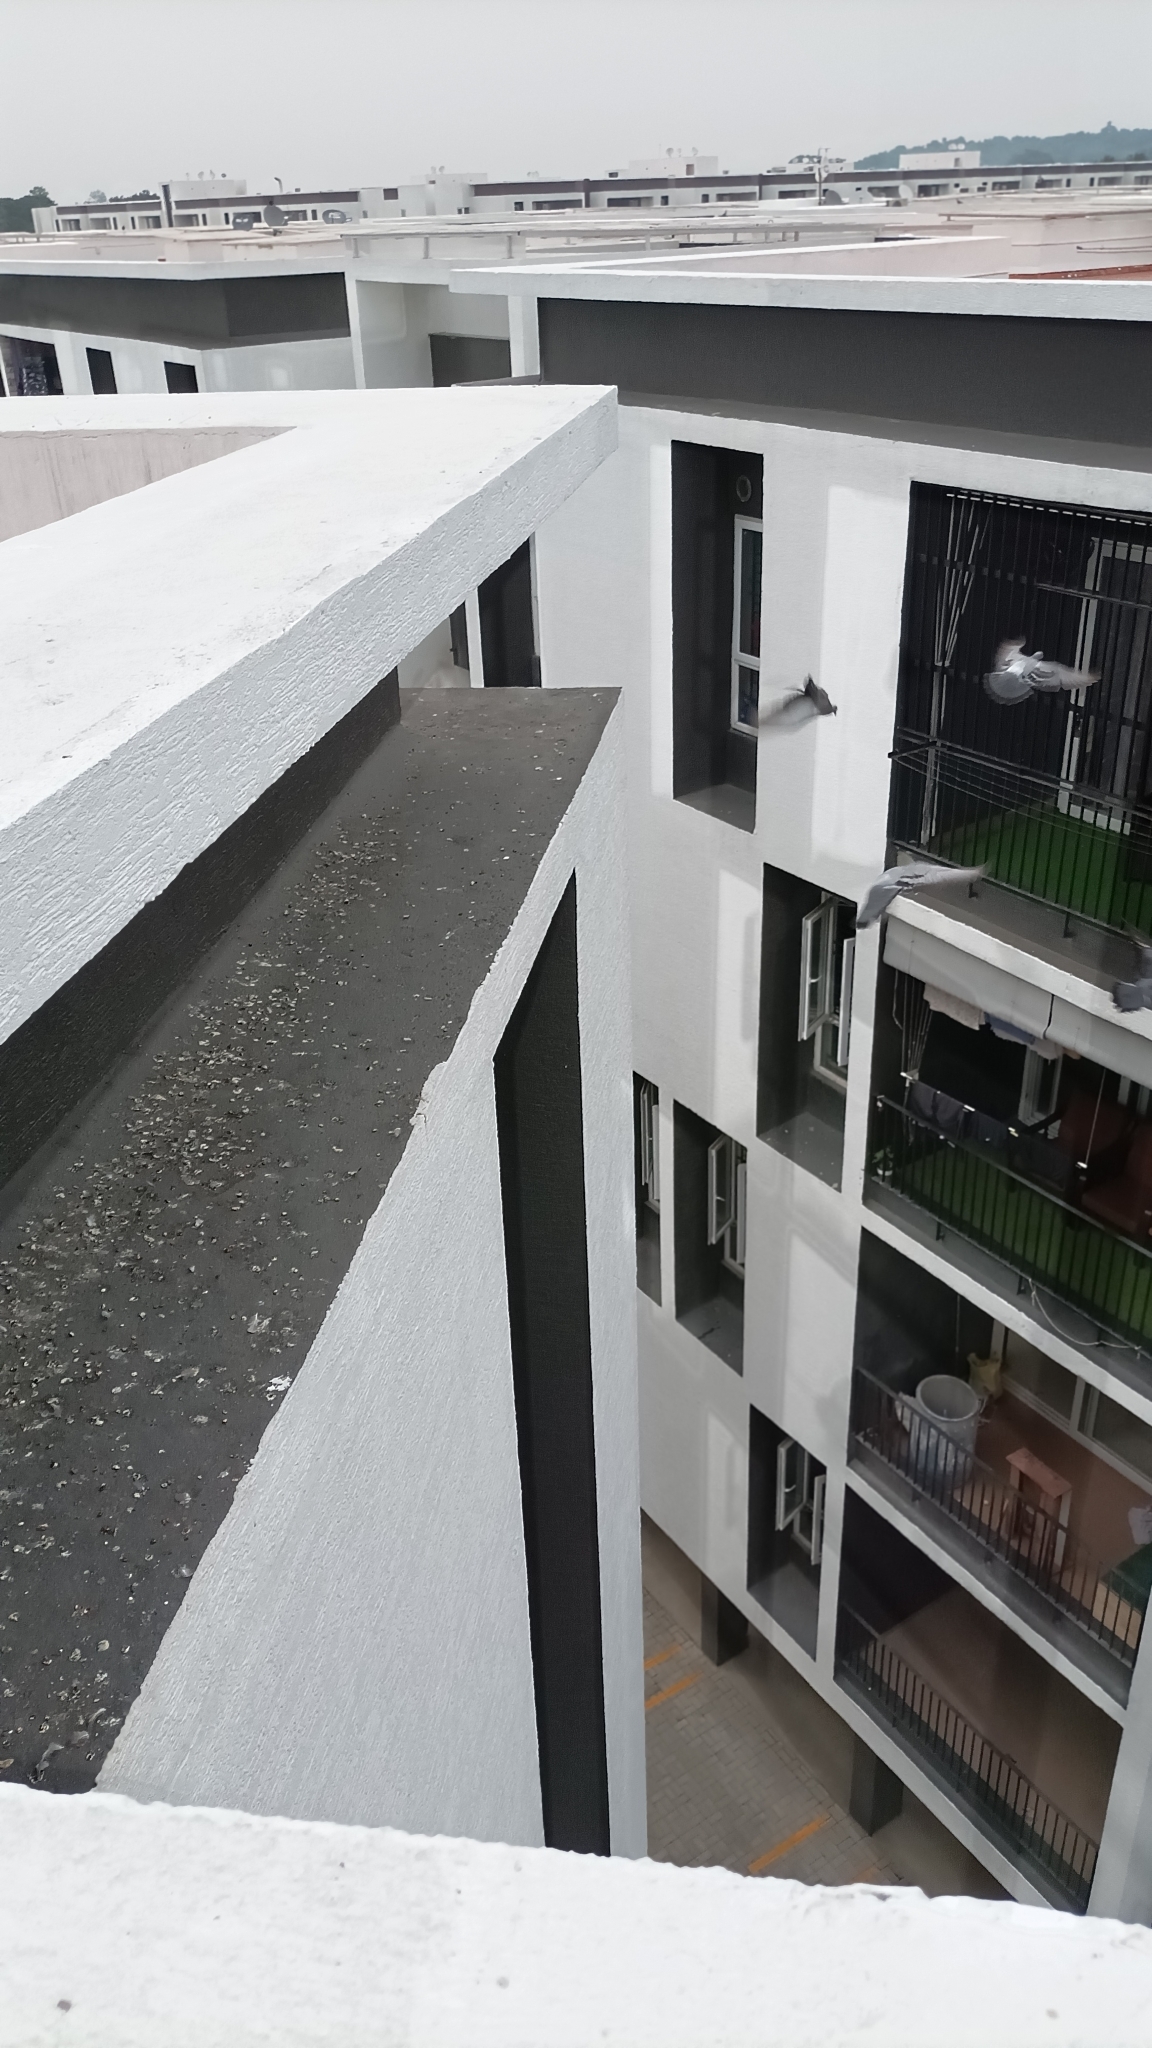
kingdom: Animalia
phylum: Chordata
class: Aves
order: Columbiformes
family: Columbidae
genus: Columba
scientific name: Columba livia
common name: Rock pigeon
